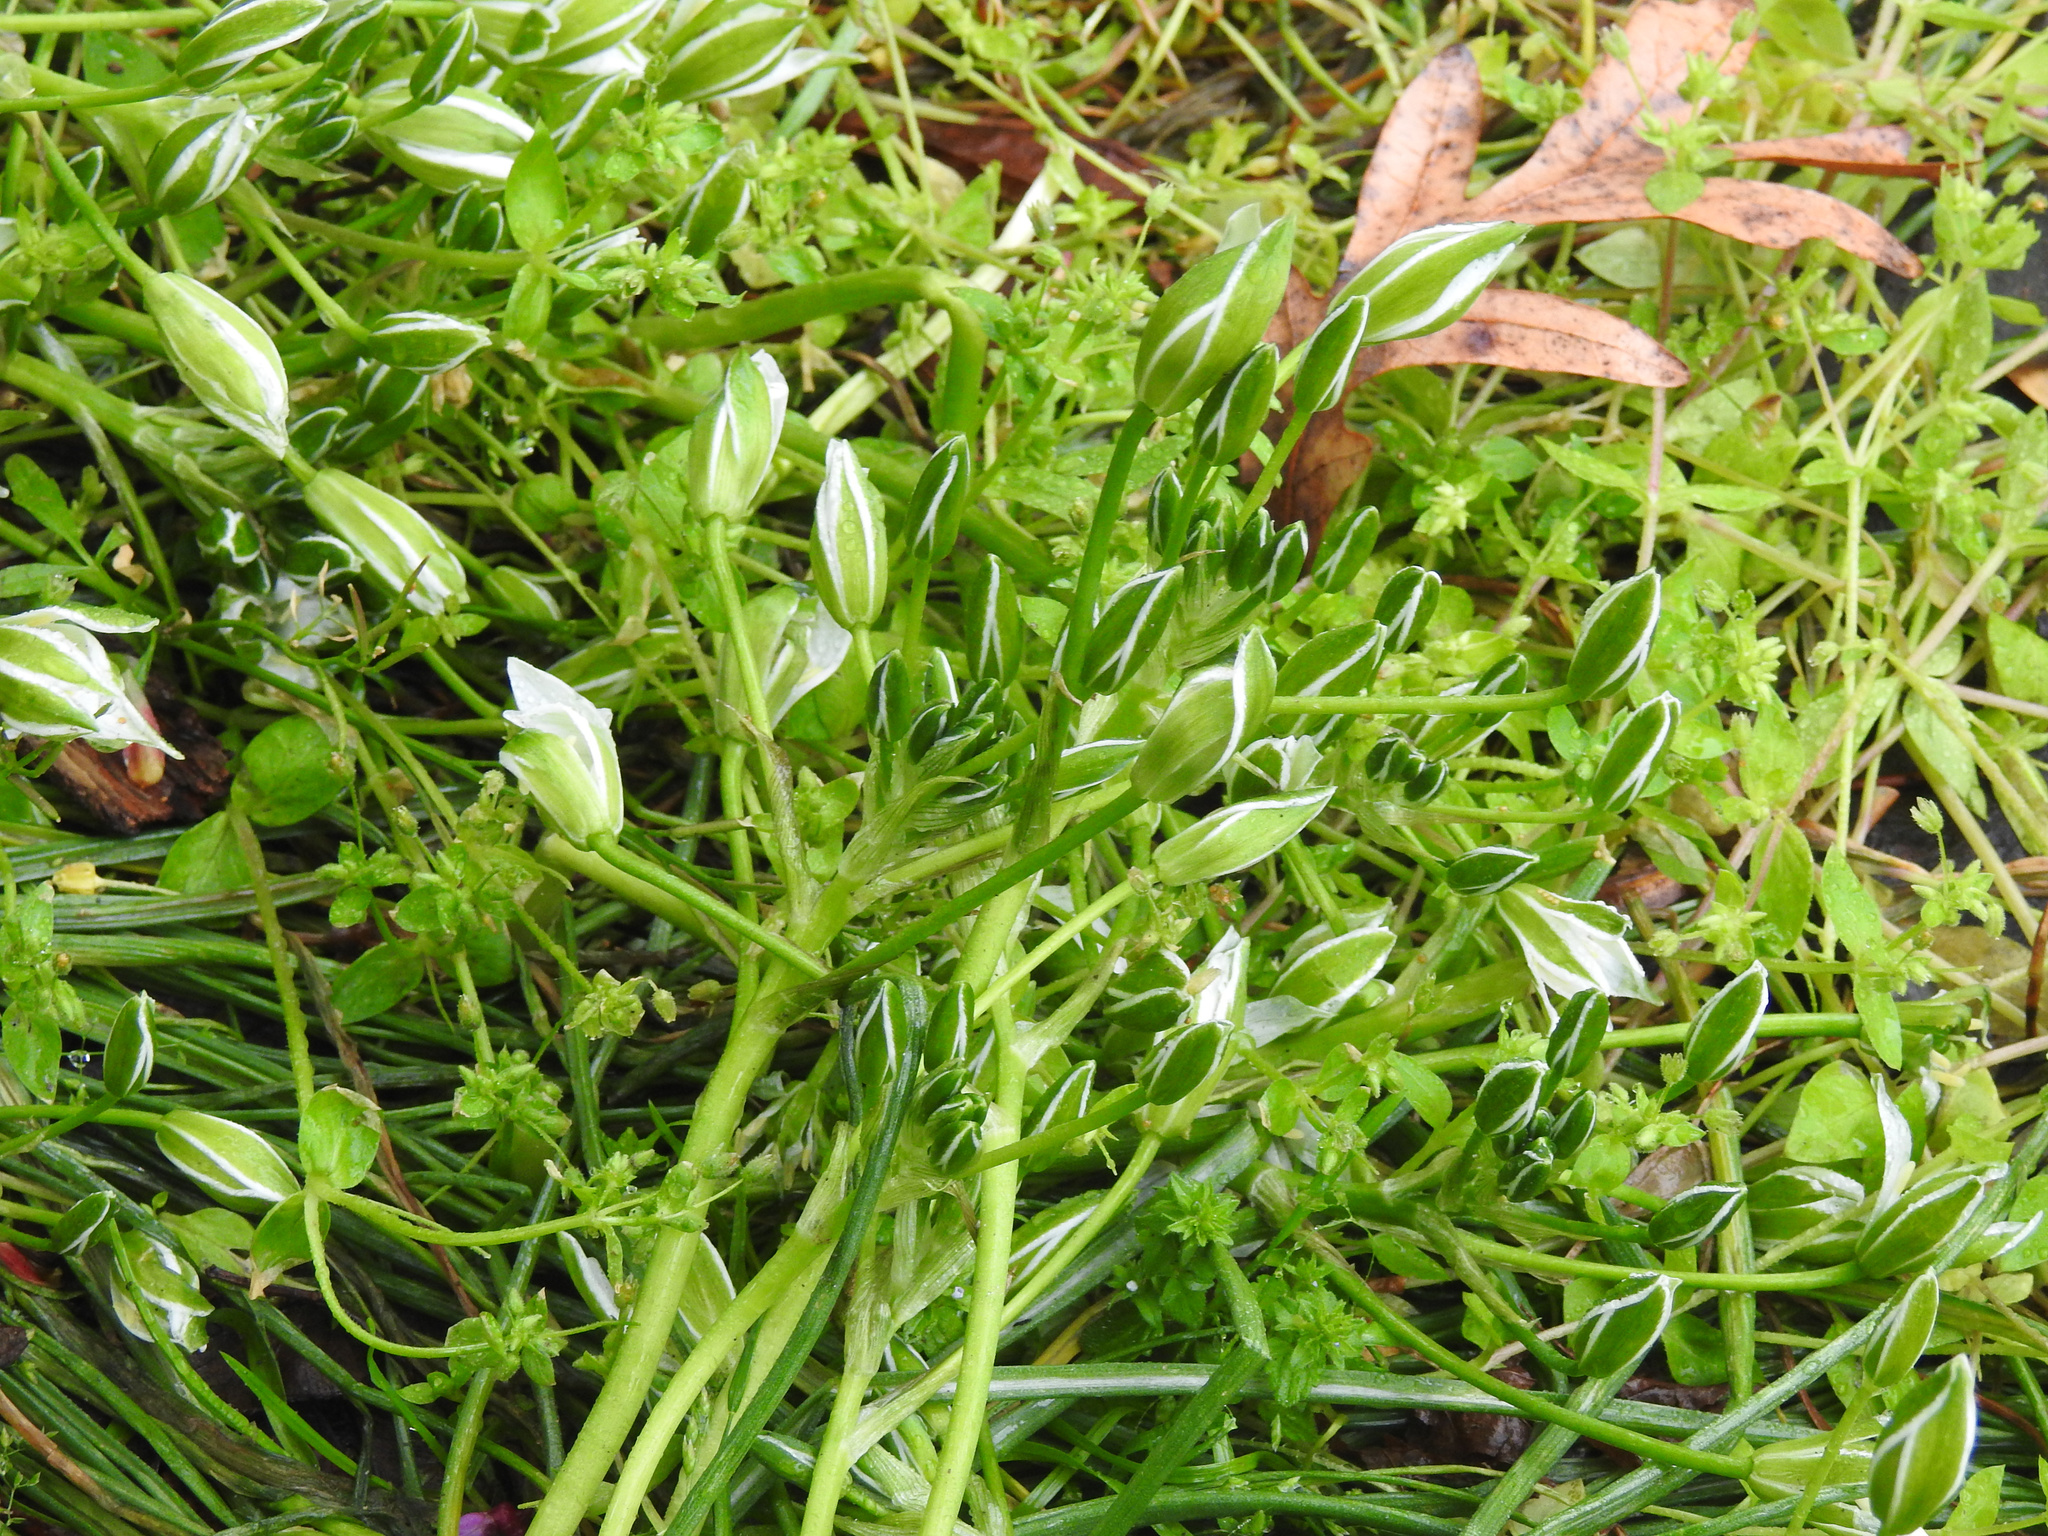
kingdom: Plantae
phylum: Tracheophyta
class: Liliopsida
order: Asparagales
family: Asparagaceae
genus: Ornithogalum
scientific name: Ornithogalum umbellatum
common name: Garden star-of-bethlehem
